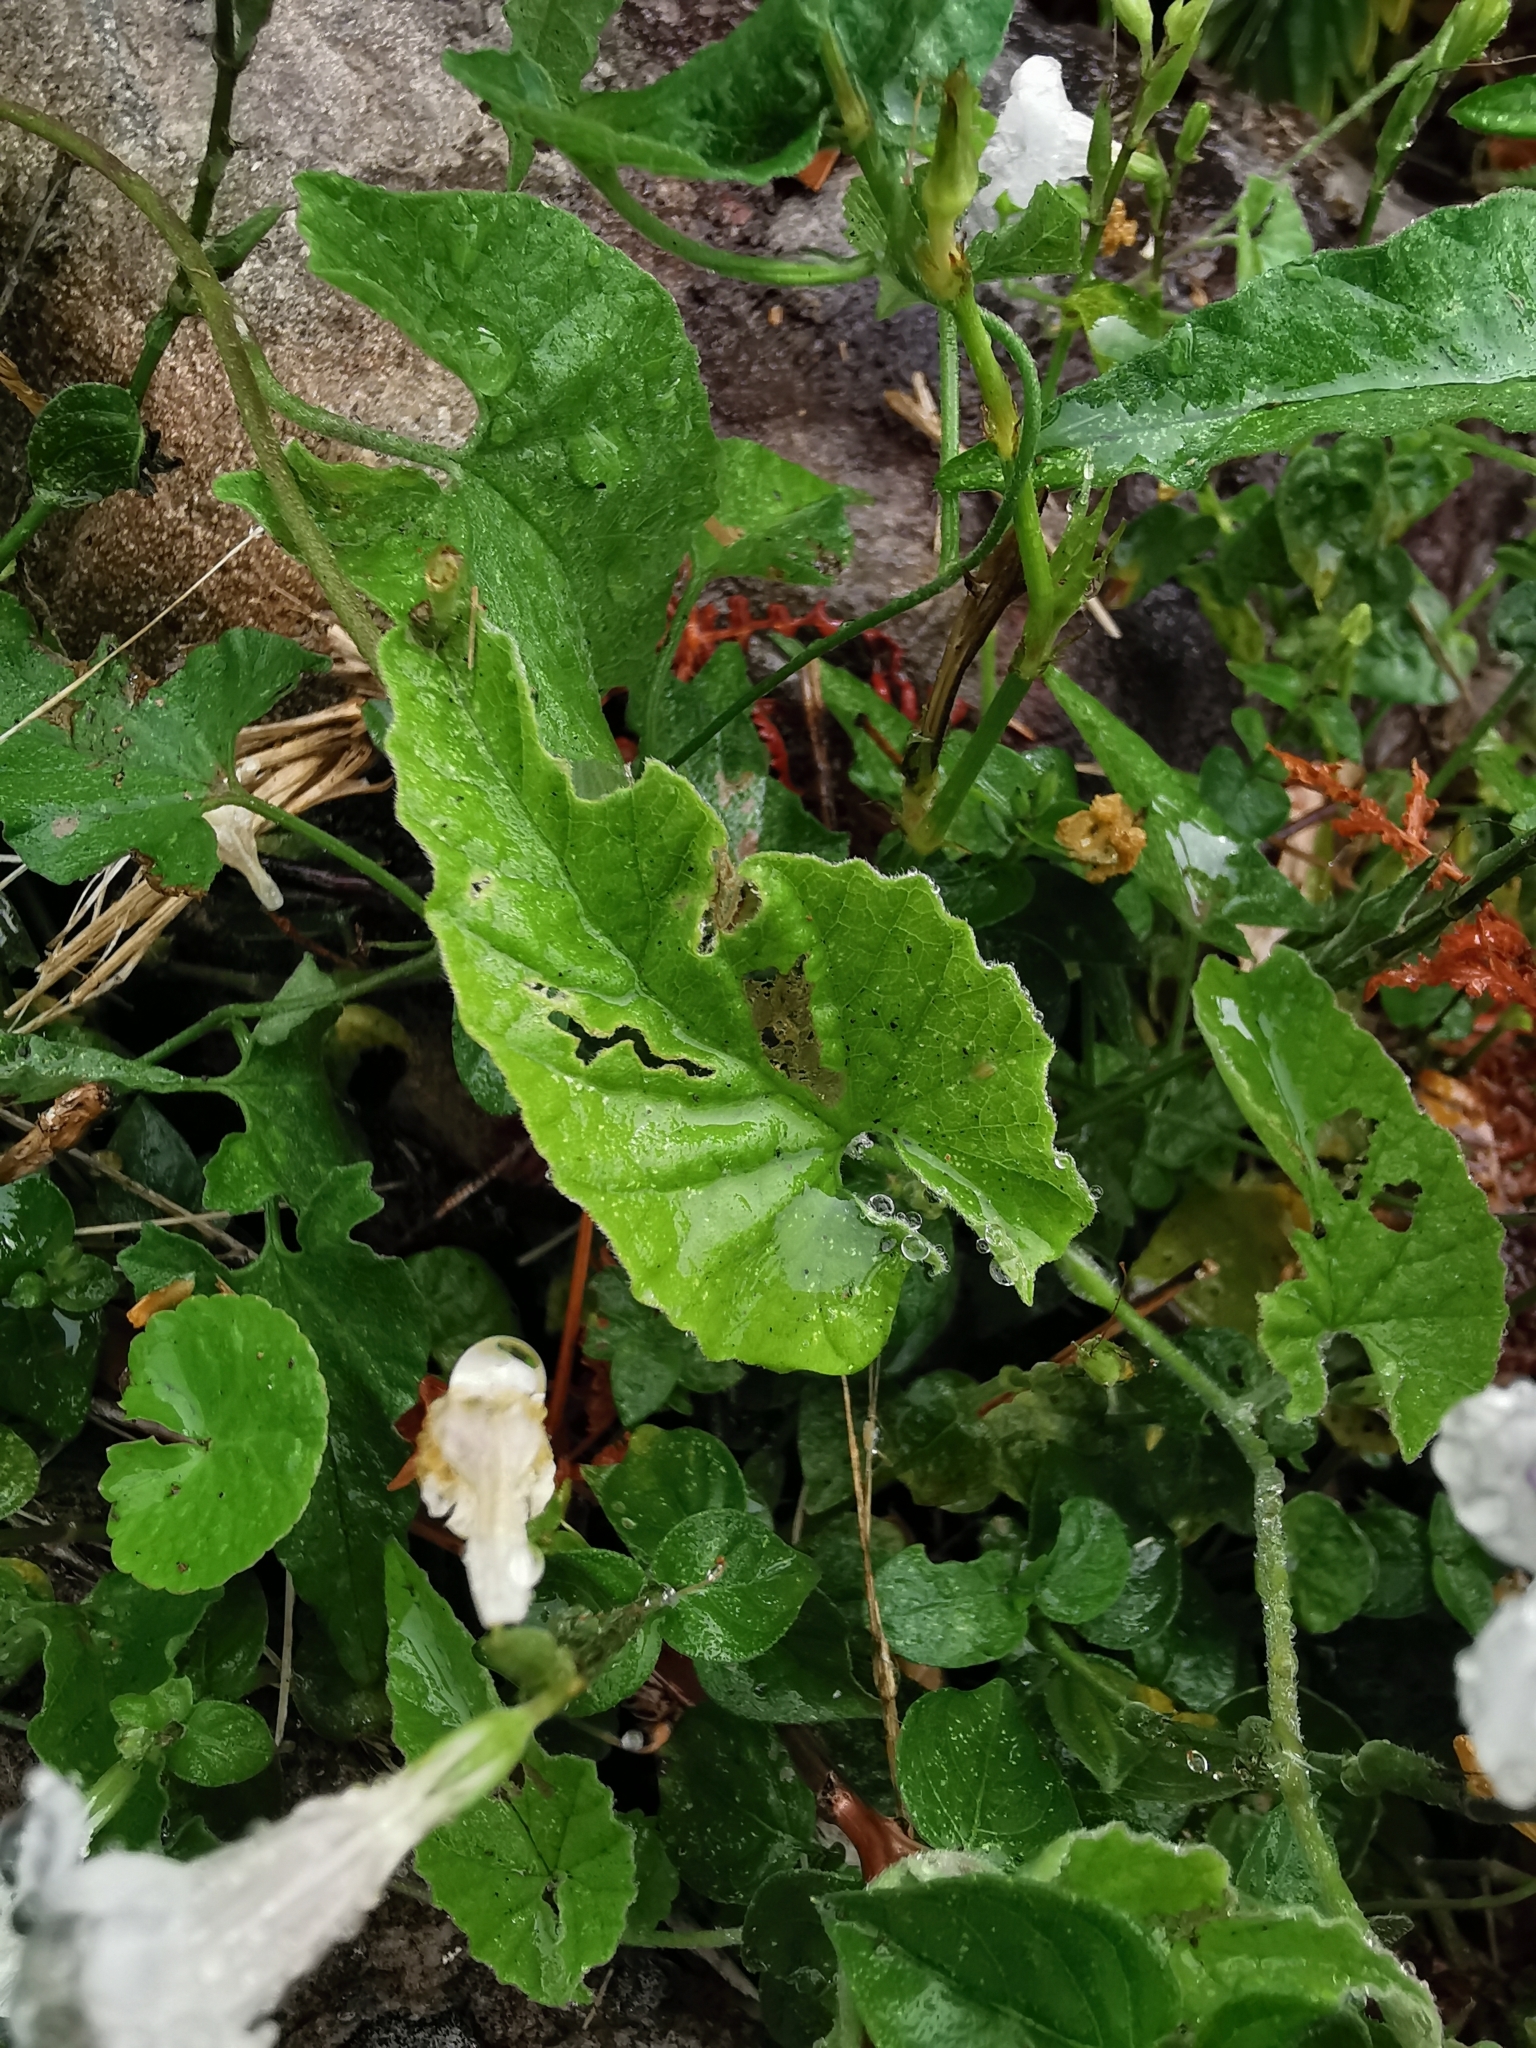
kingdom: Plantae
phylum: Tracheophyta
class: Magnoliopsida
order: Lamiales
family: Acanthaceae
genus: Asystasia
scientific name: Asystasia intrusa
